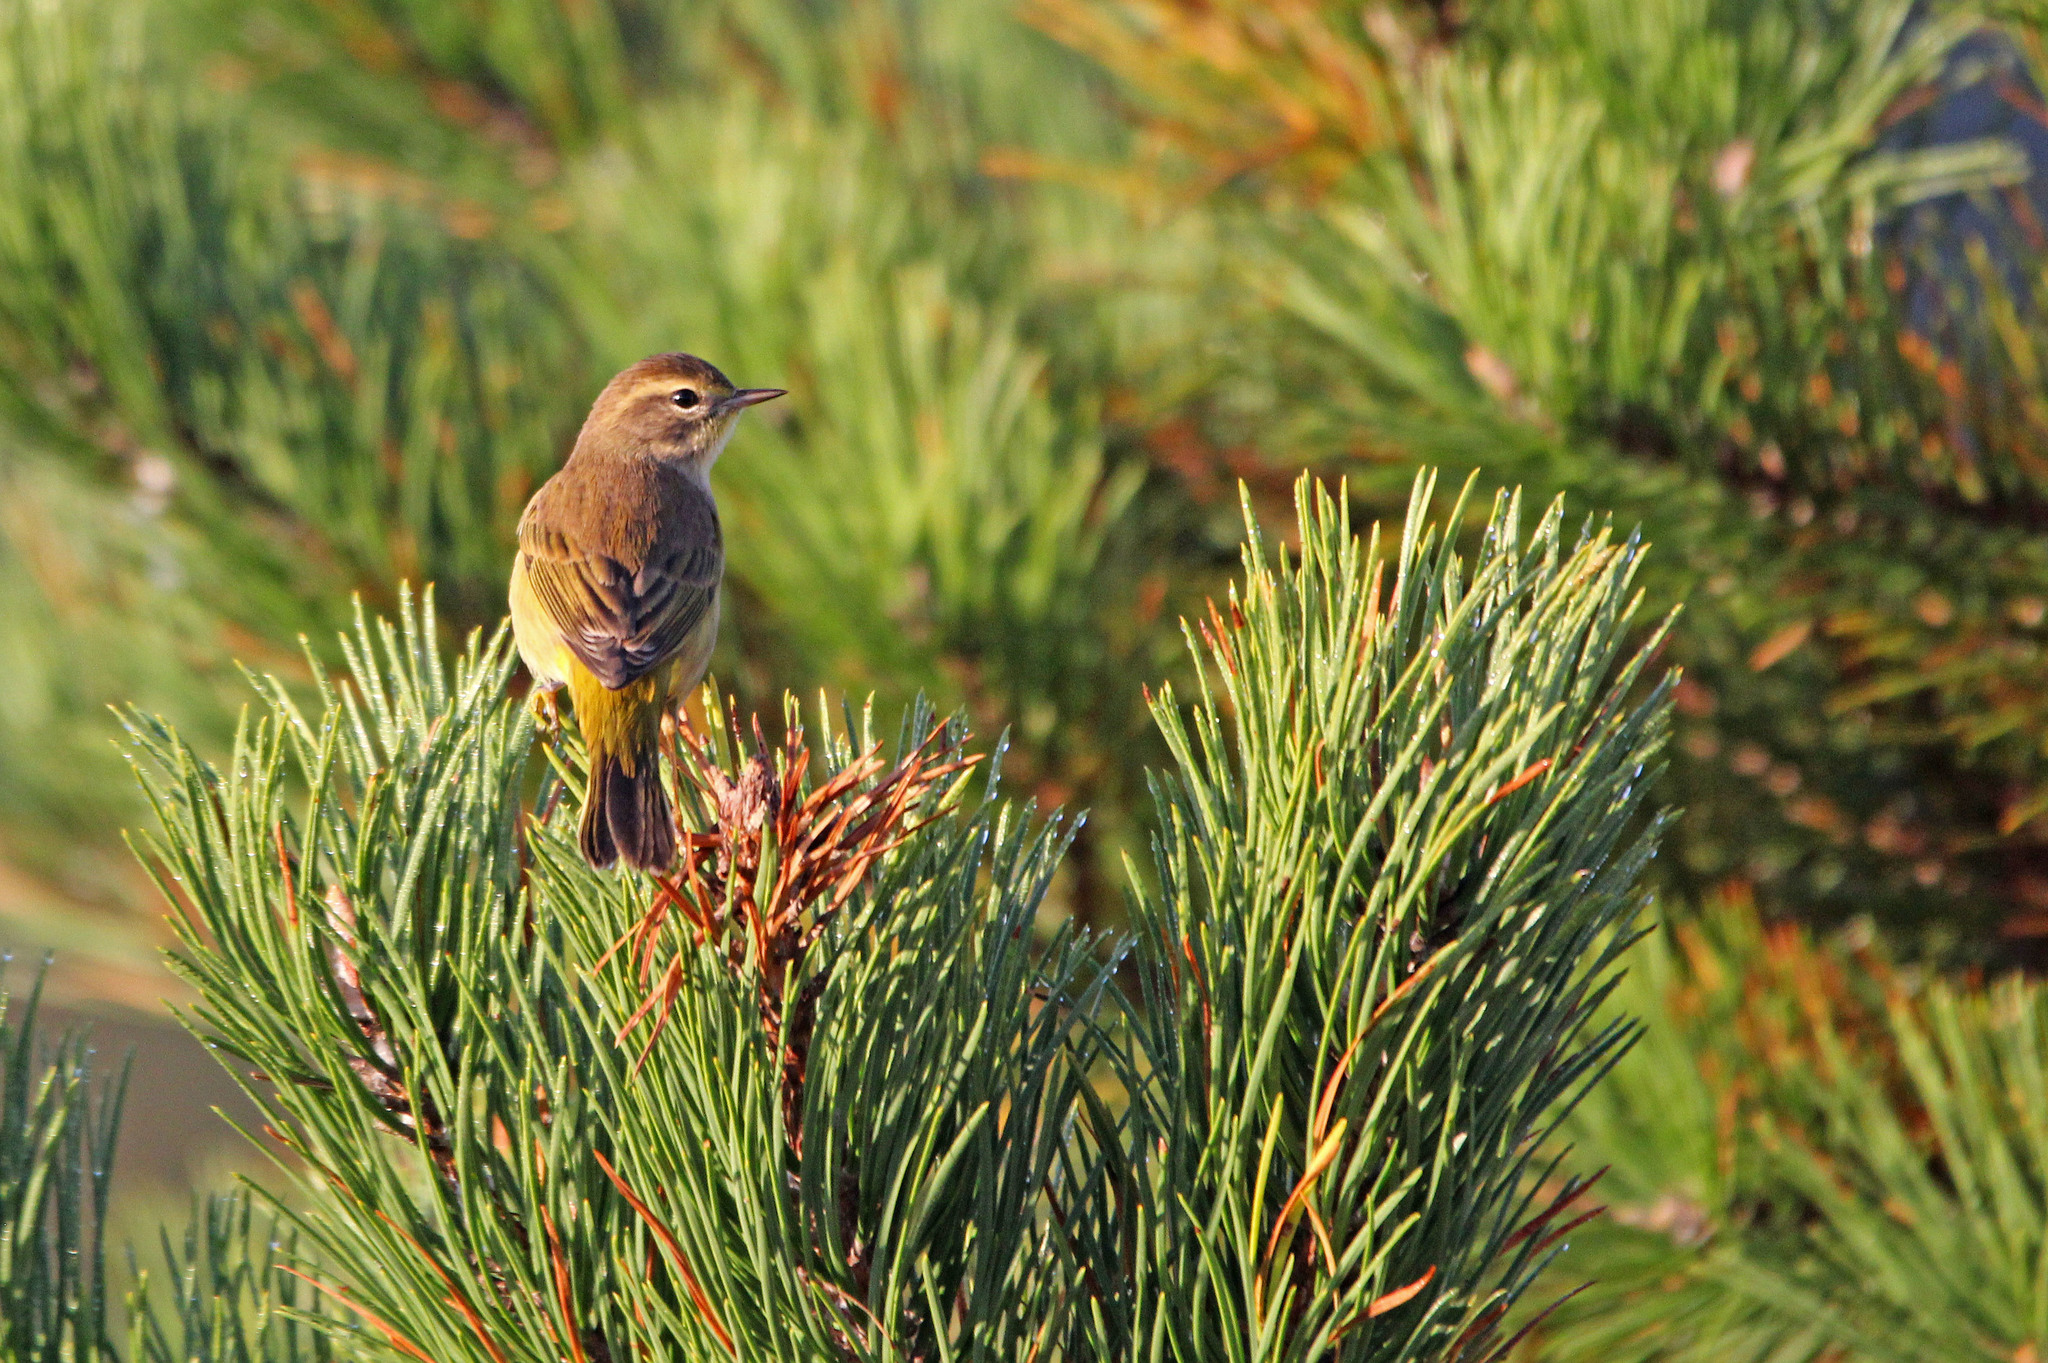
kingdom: Animalia
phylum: Chordata
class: Aves
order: Passeriformes
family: Parulidae
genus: Setophaga
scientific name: Setophaga palmarum
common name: Palm warbler
